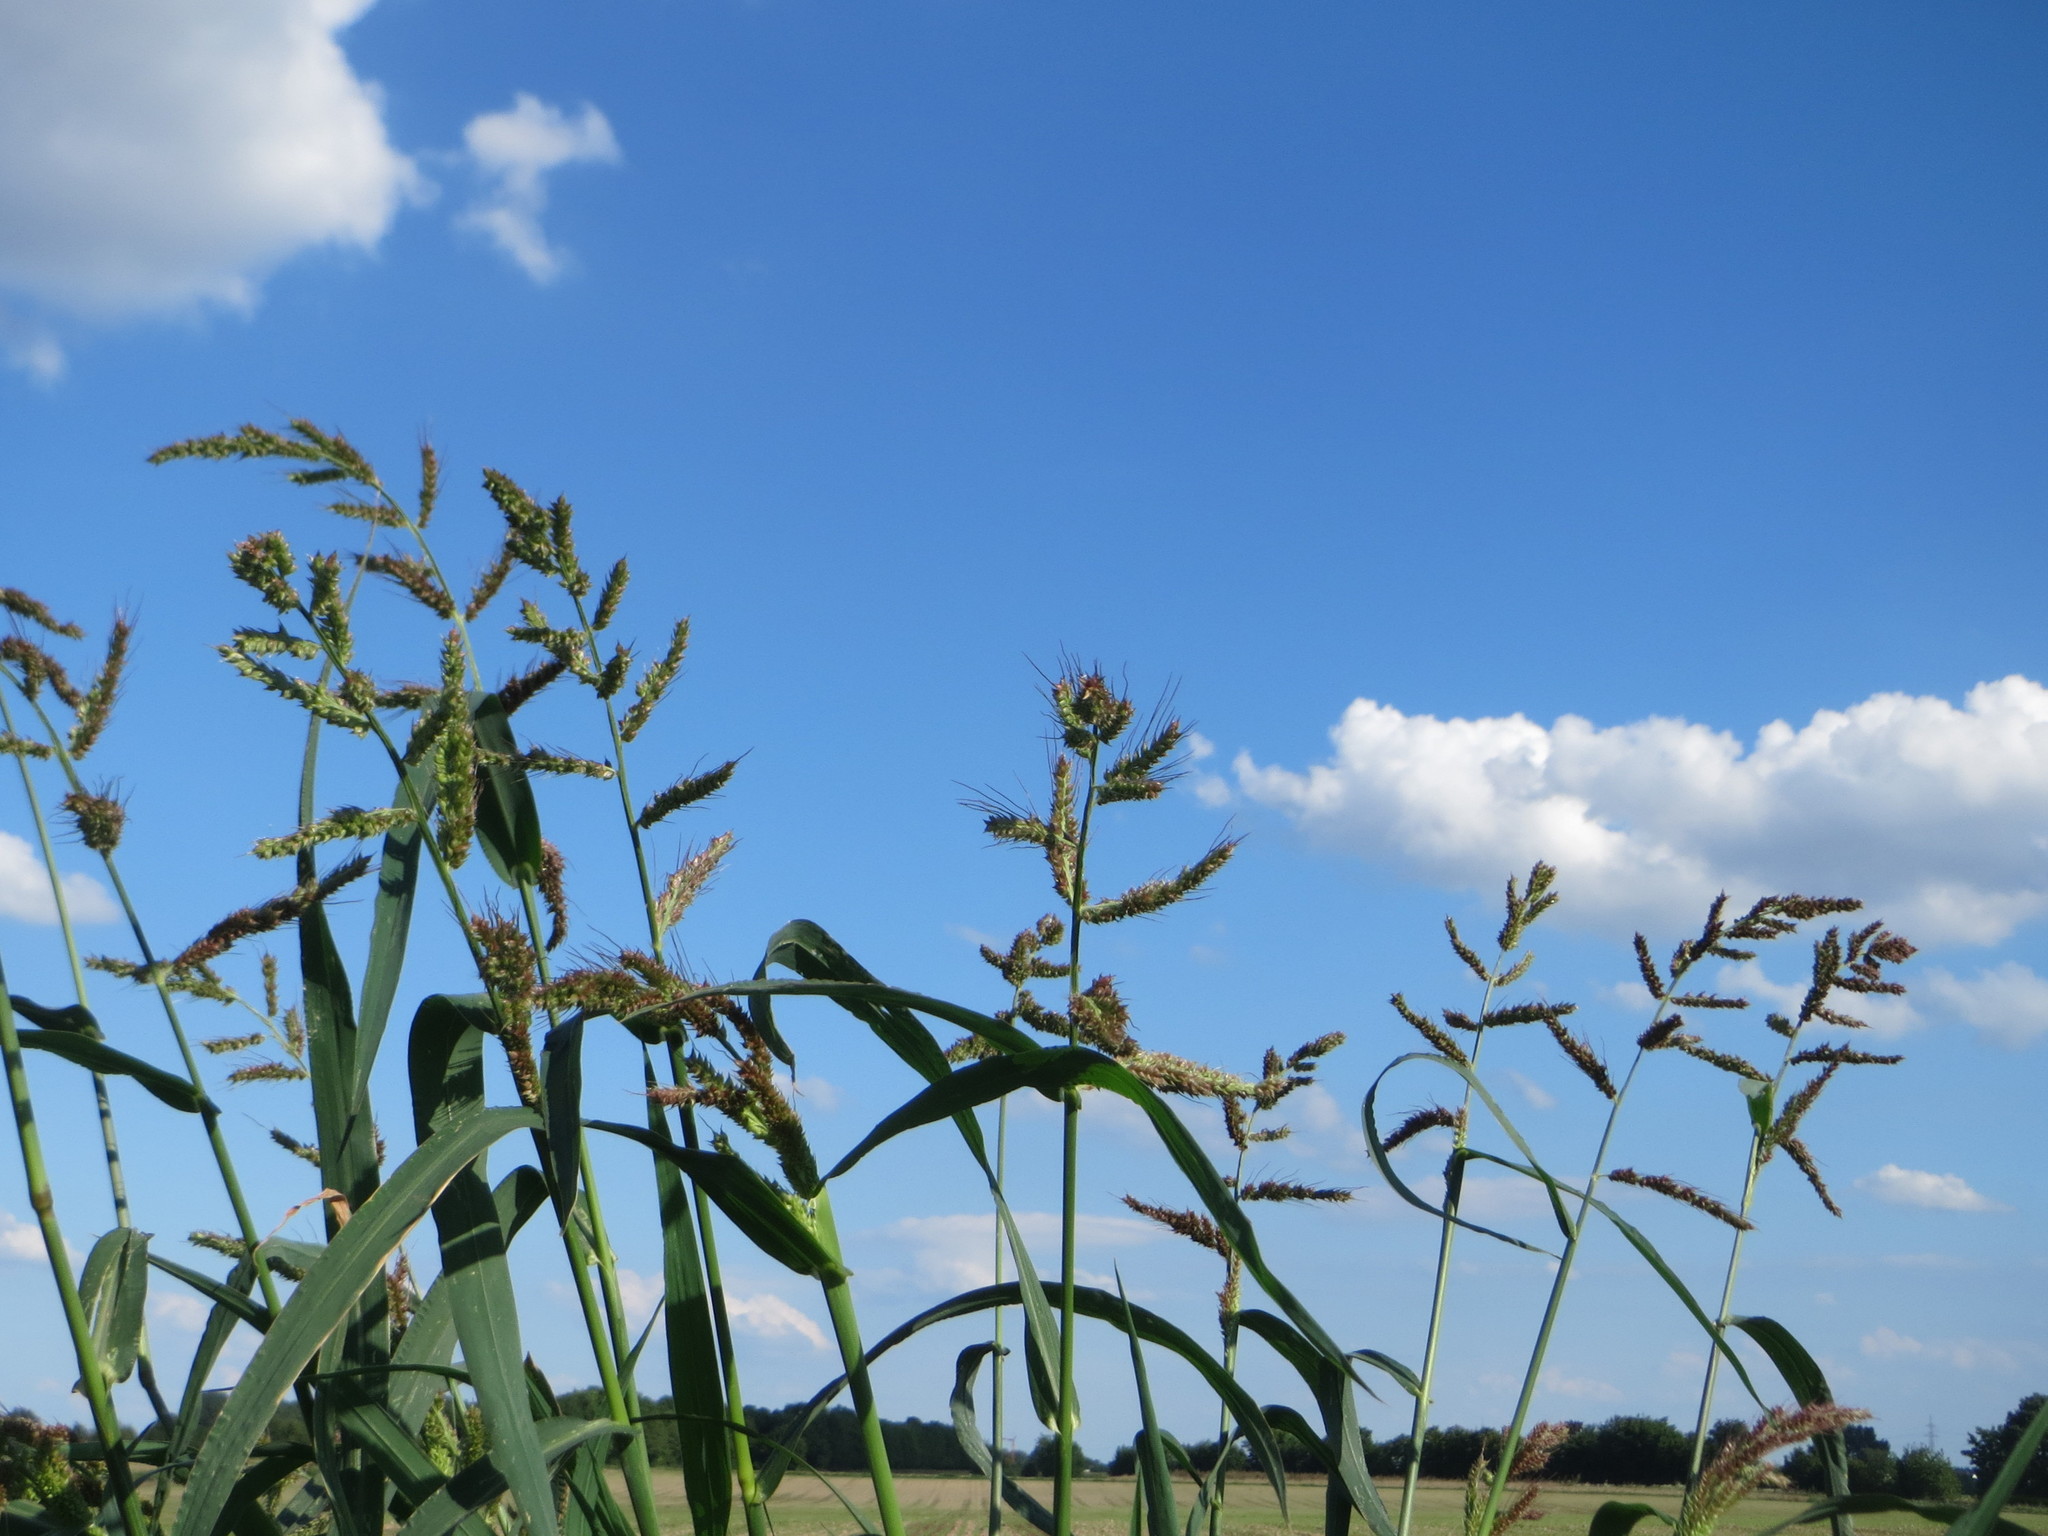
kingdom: Plantae
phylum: Tracheophyta
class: Liliopsida
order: Poales
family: Poaceae
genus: Echinochloa
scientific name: Echinochloa crus-galli
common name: Cockspur
